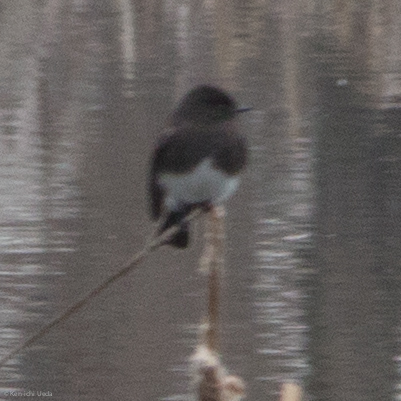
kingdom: Animalia
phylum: Chordata
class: Aves
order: Passeriformes
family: Tyrannidae
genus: Sayornis
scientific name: Sayornis nigricans
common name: Black phoebe
